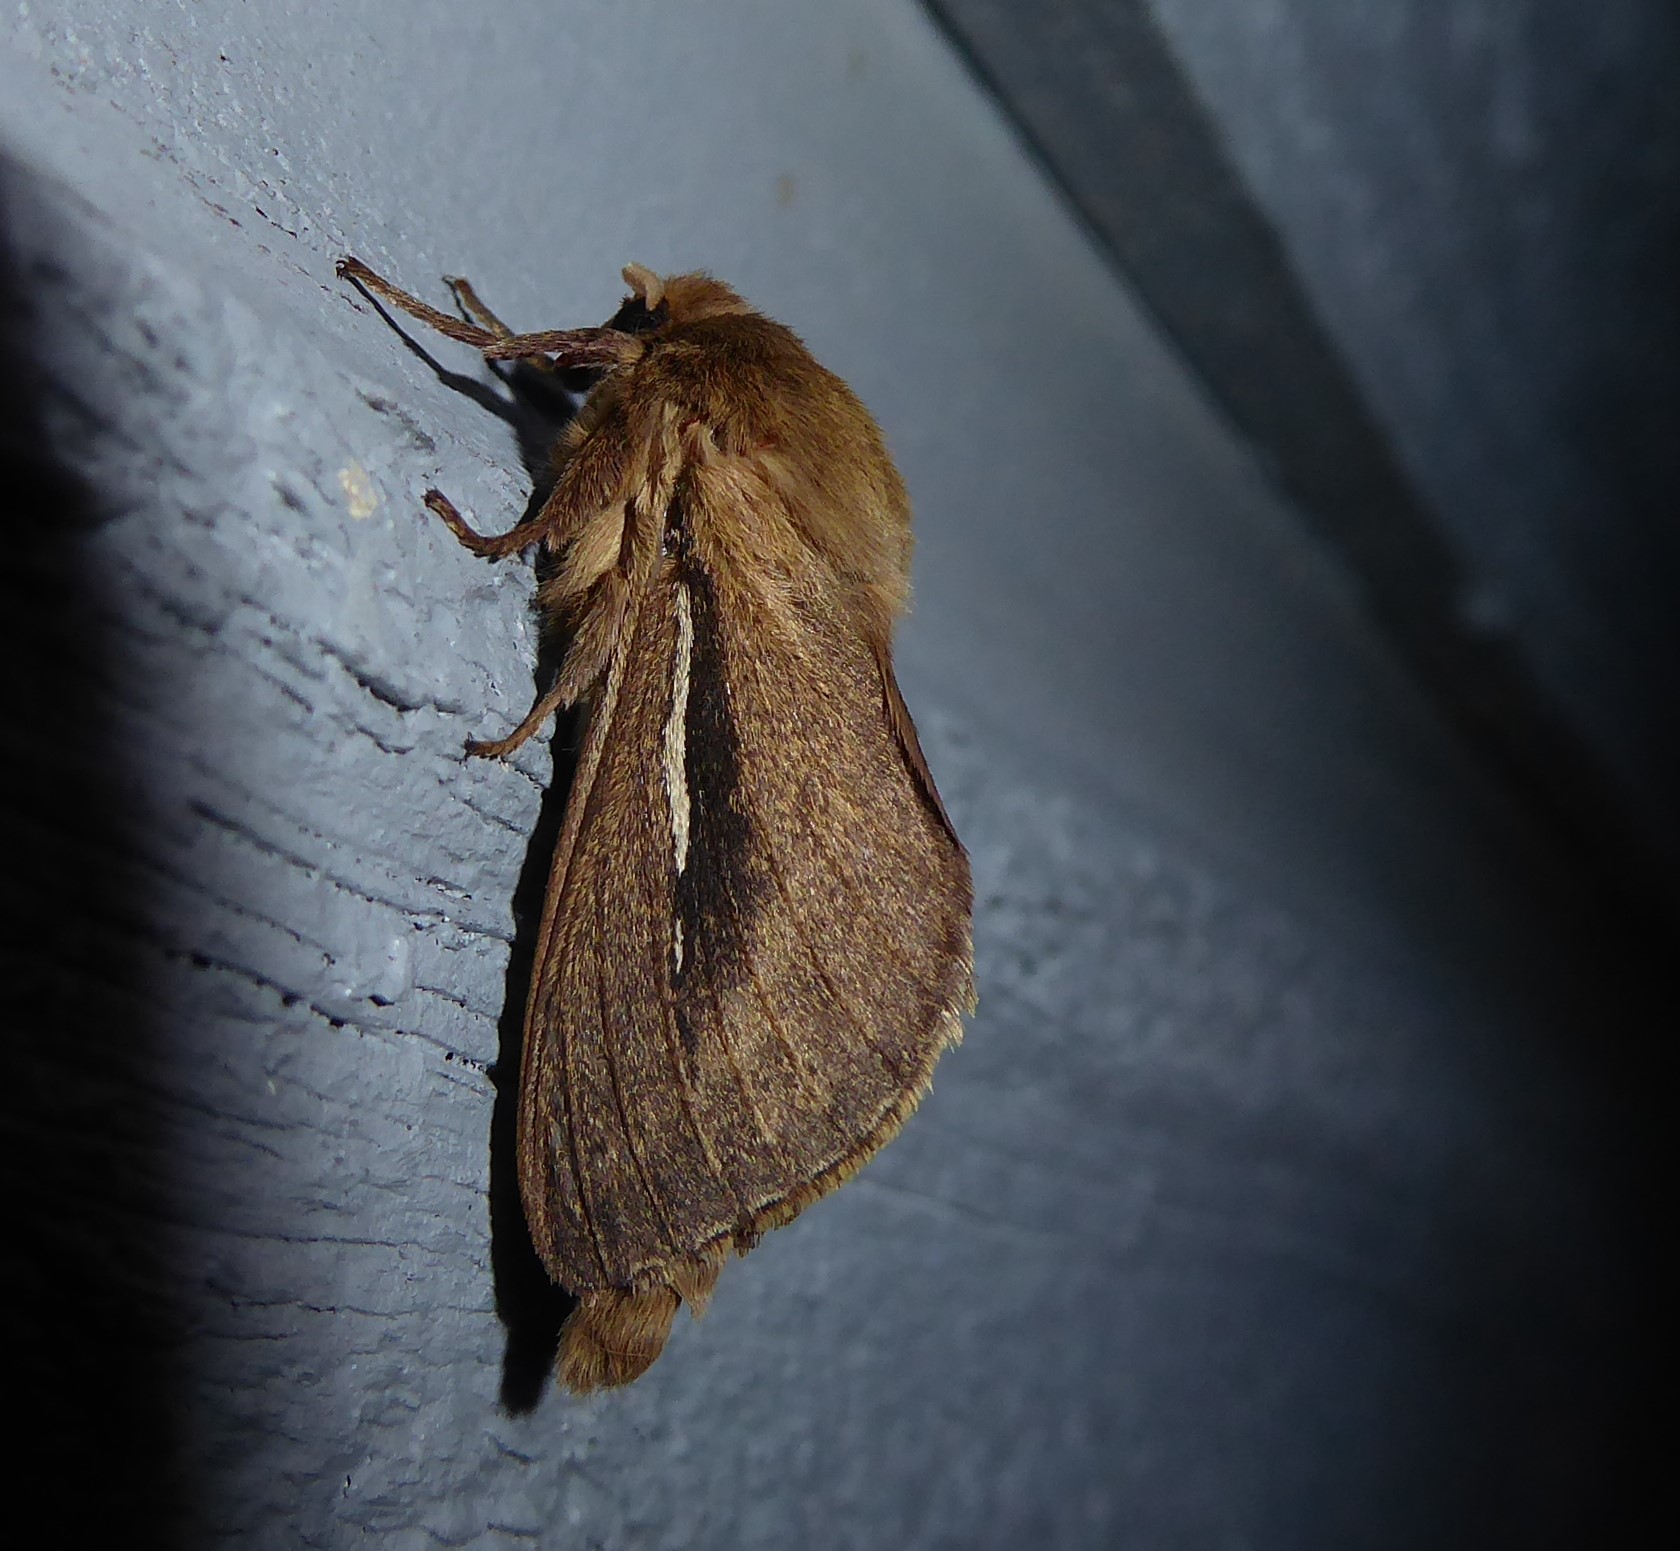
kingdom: Animalia
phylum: Arthropoda
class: Insecta
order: Lepidoptera
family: Hepialidae
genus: Wiseana
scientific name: Wiseana umbraculatus
